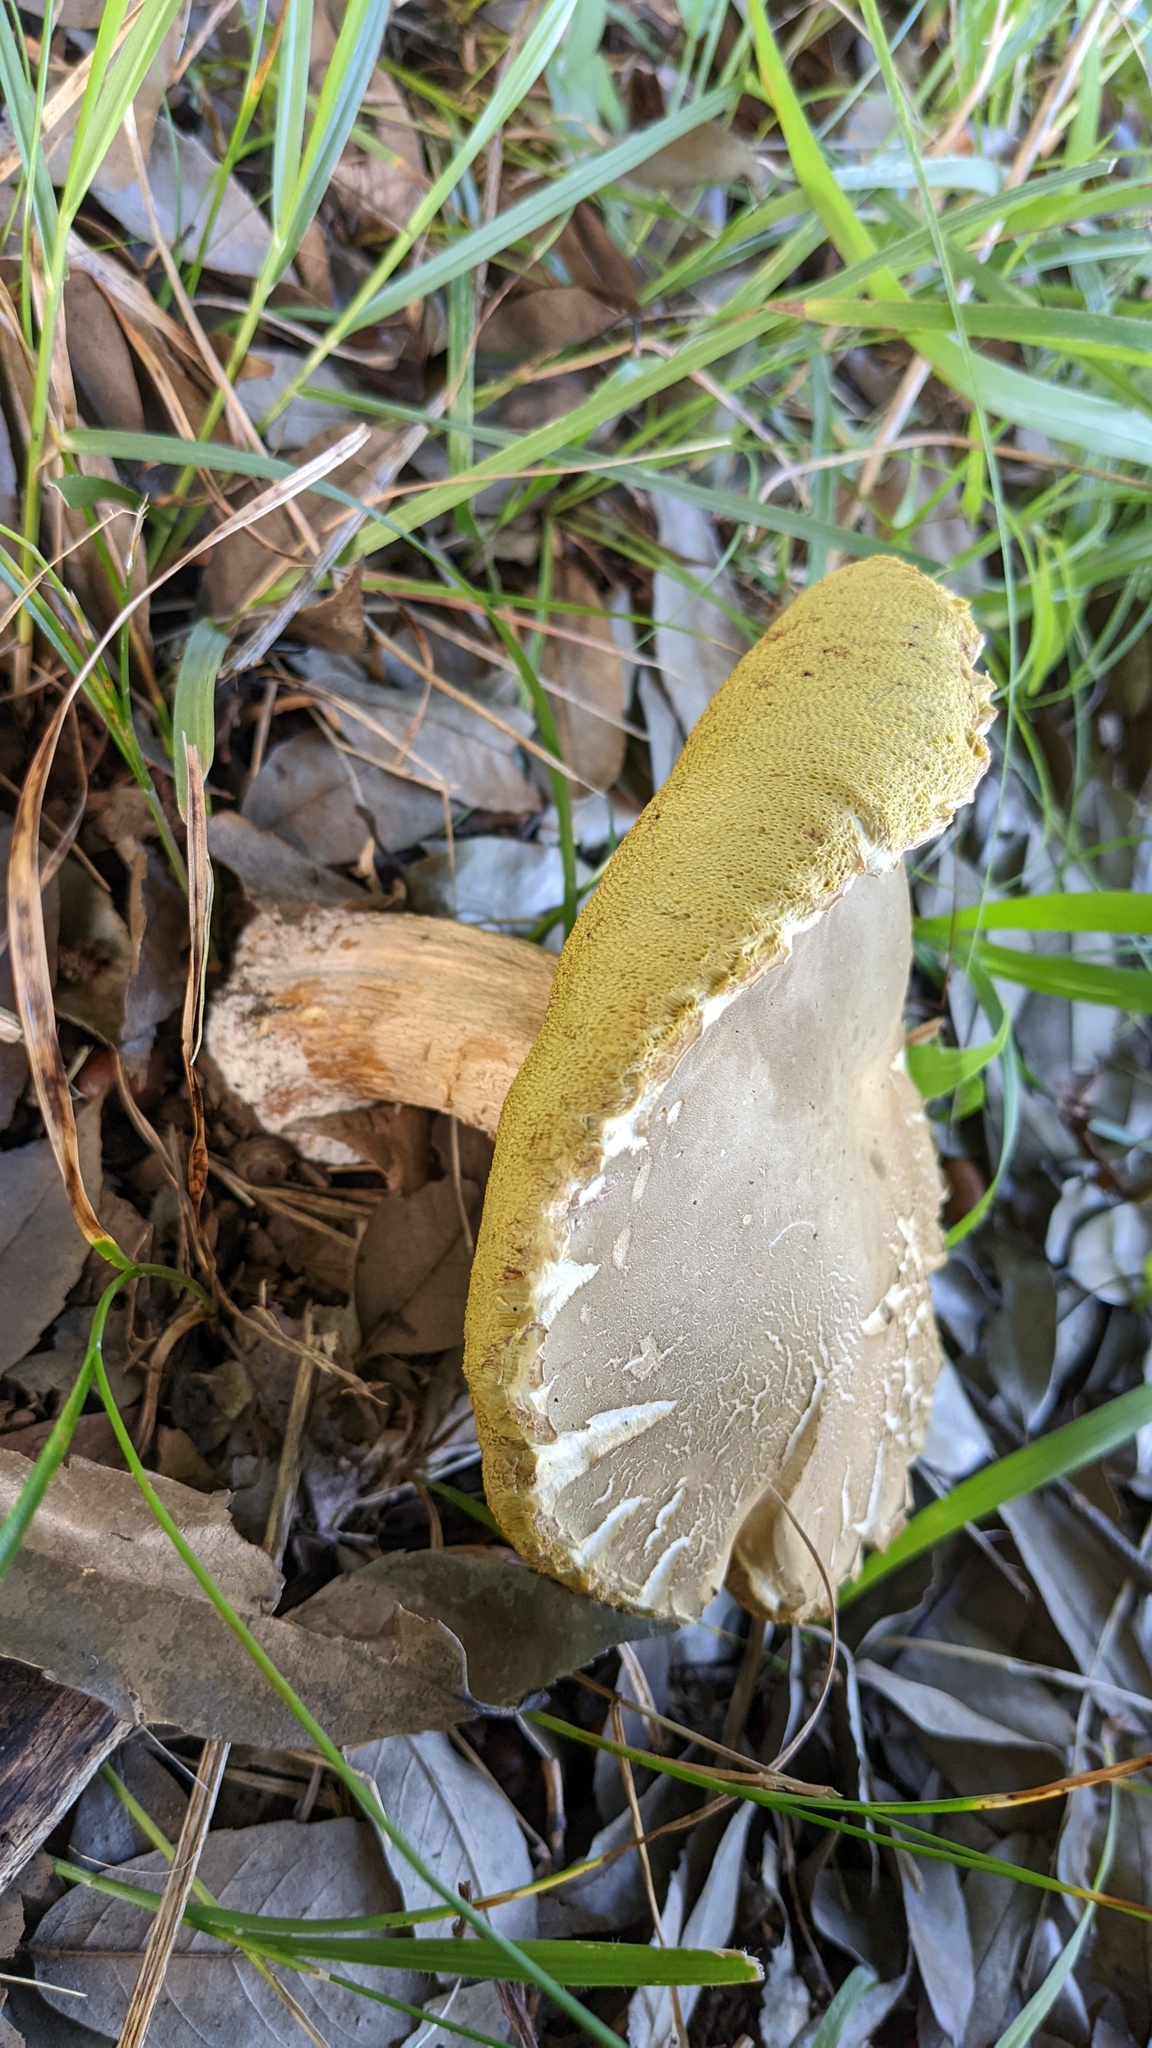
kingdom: Fungi
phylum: Basidiomycota
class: Agaricomycetes
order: Boletales
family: Boletaceae
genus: Boletus
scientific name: Boletus reticulatus
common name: Summer bolete
